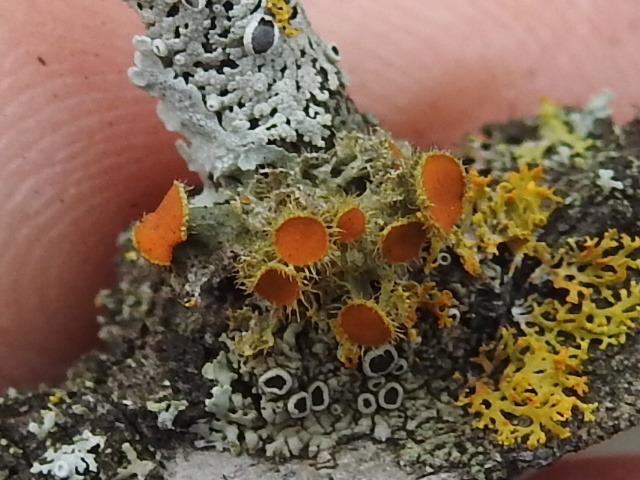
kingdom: Fungi
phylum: Ascomycota
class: Lecanoromycetes
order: Teloschistales
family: Teloschistaceae
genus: Niorma
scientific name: Niorma chrysophthalma
